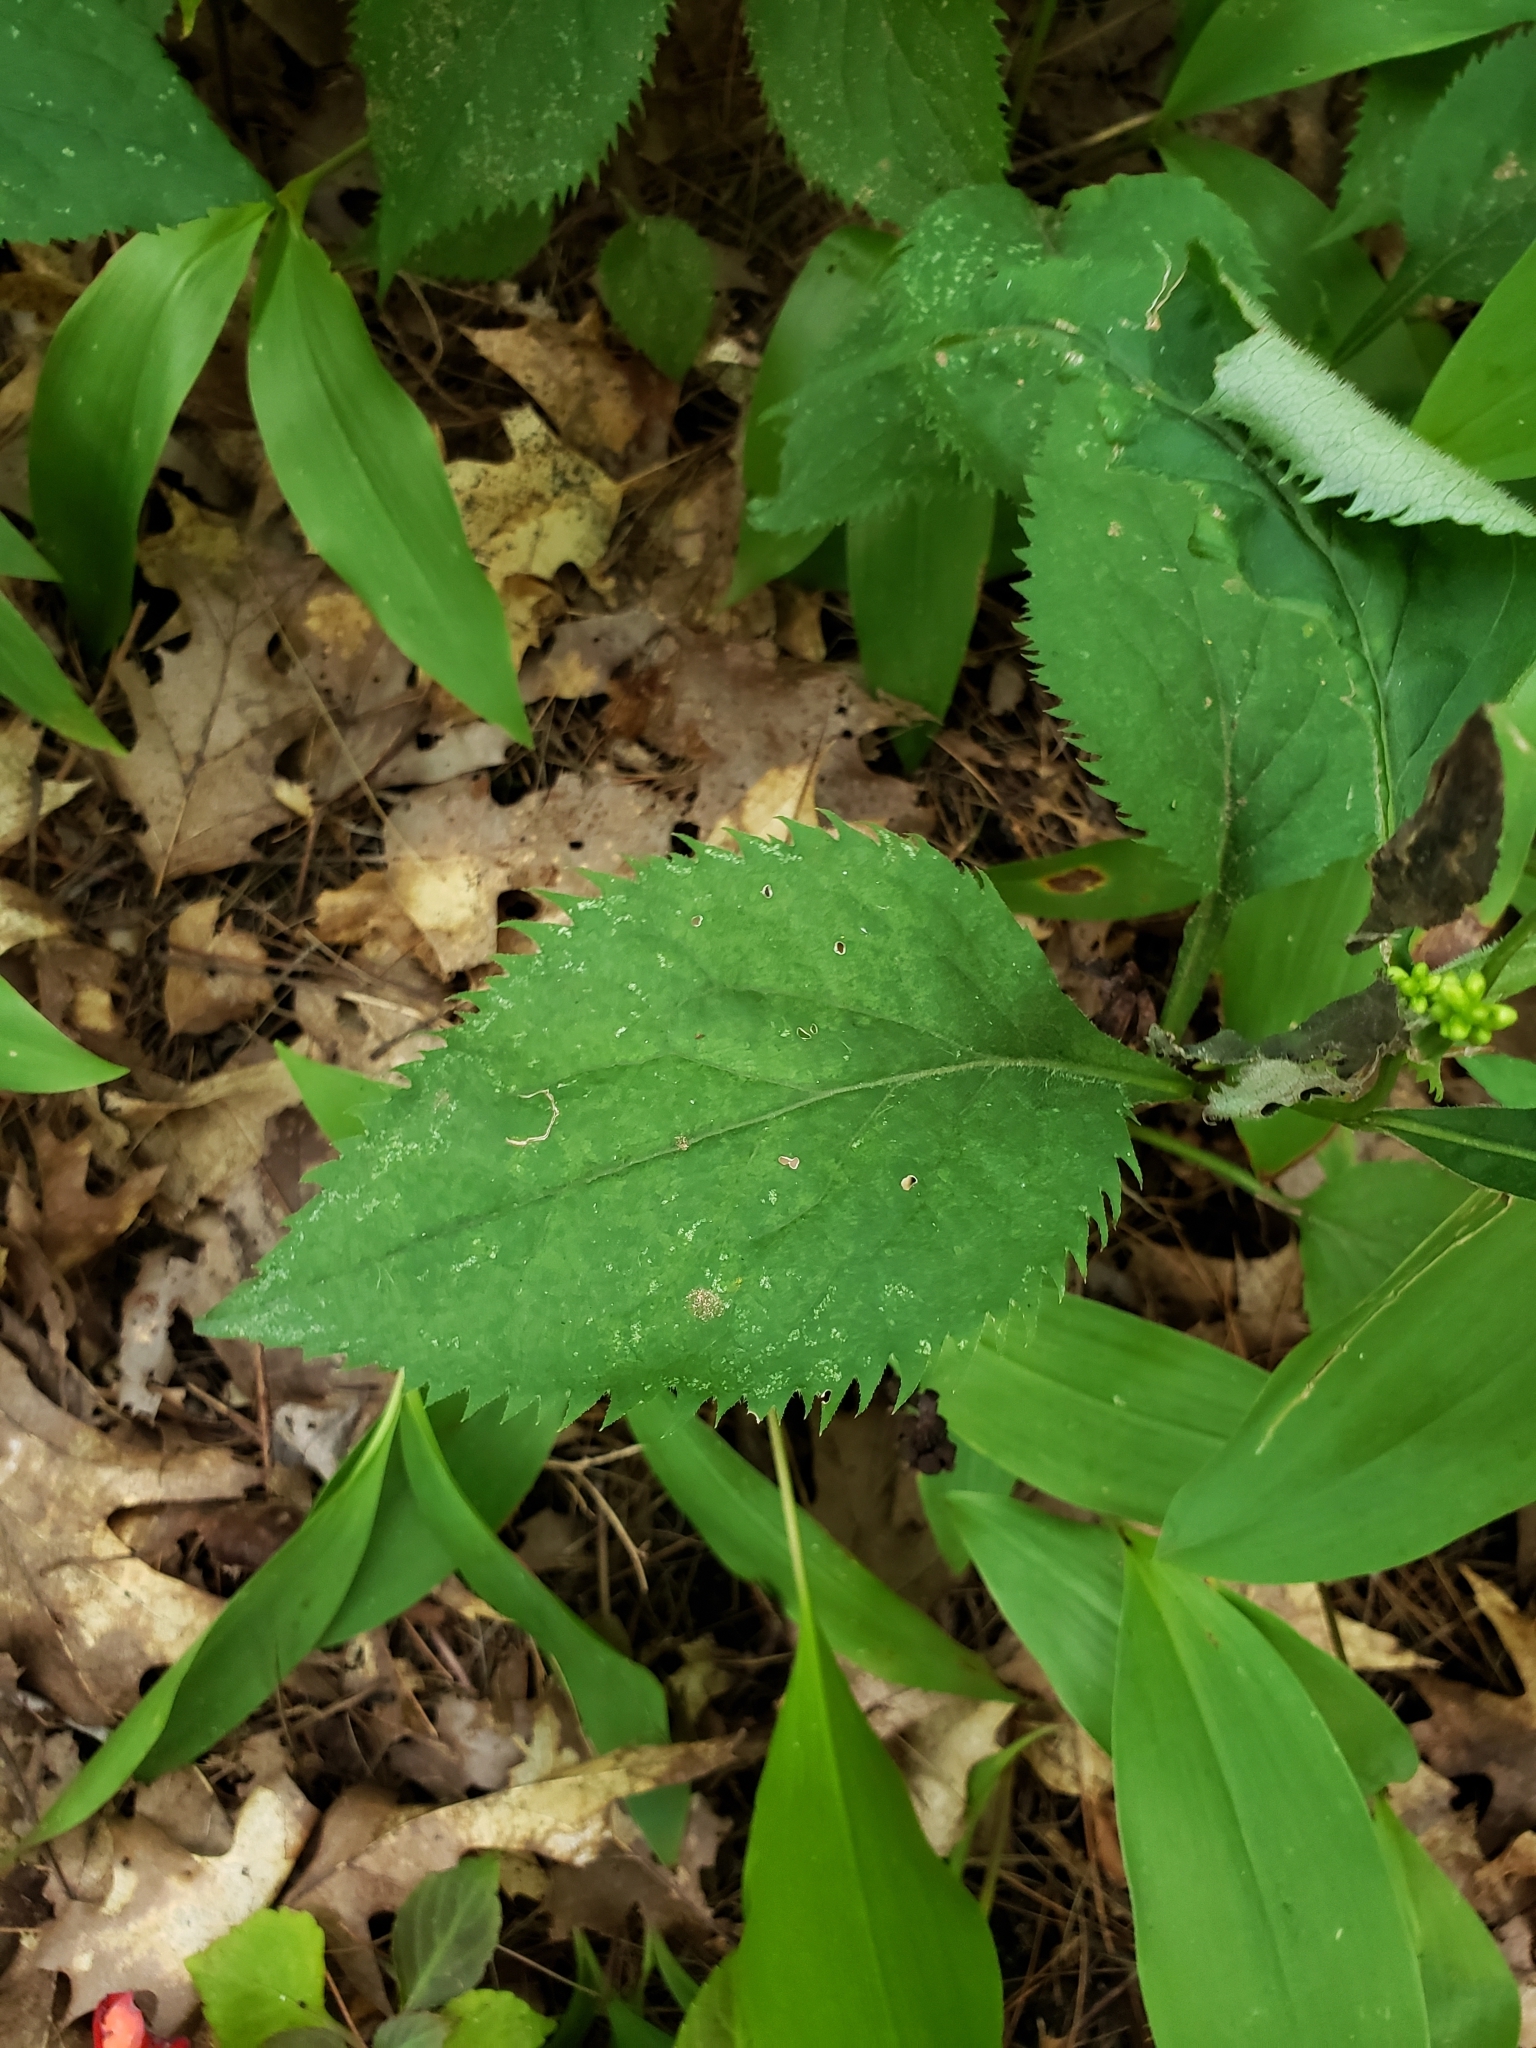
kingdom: Plantae
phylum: Tracheophyta
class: Magnoliopsida
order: Asterales
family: Asteraceae
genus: Solidago
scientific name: Solidago flexicaulis
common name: Zig-zag goldenrod
